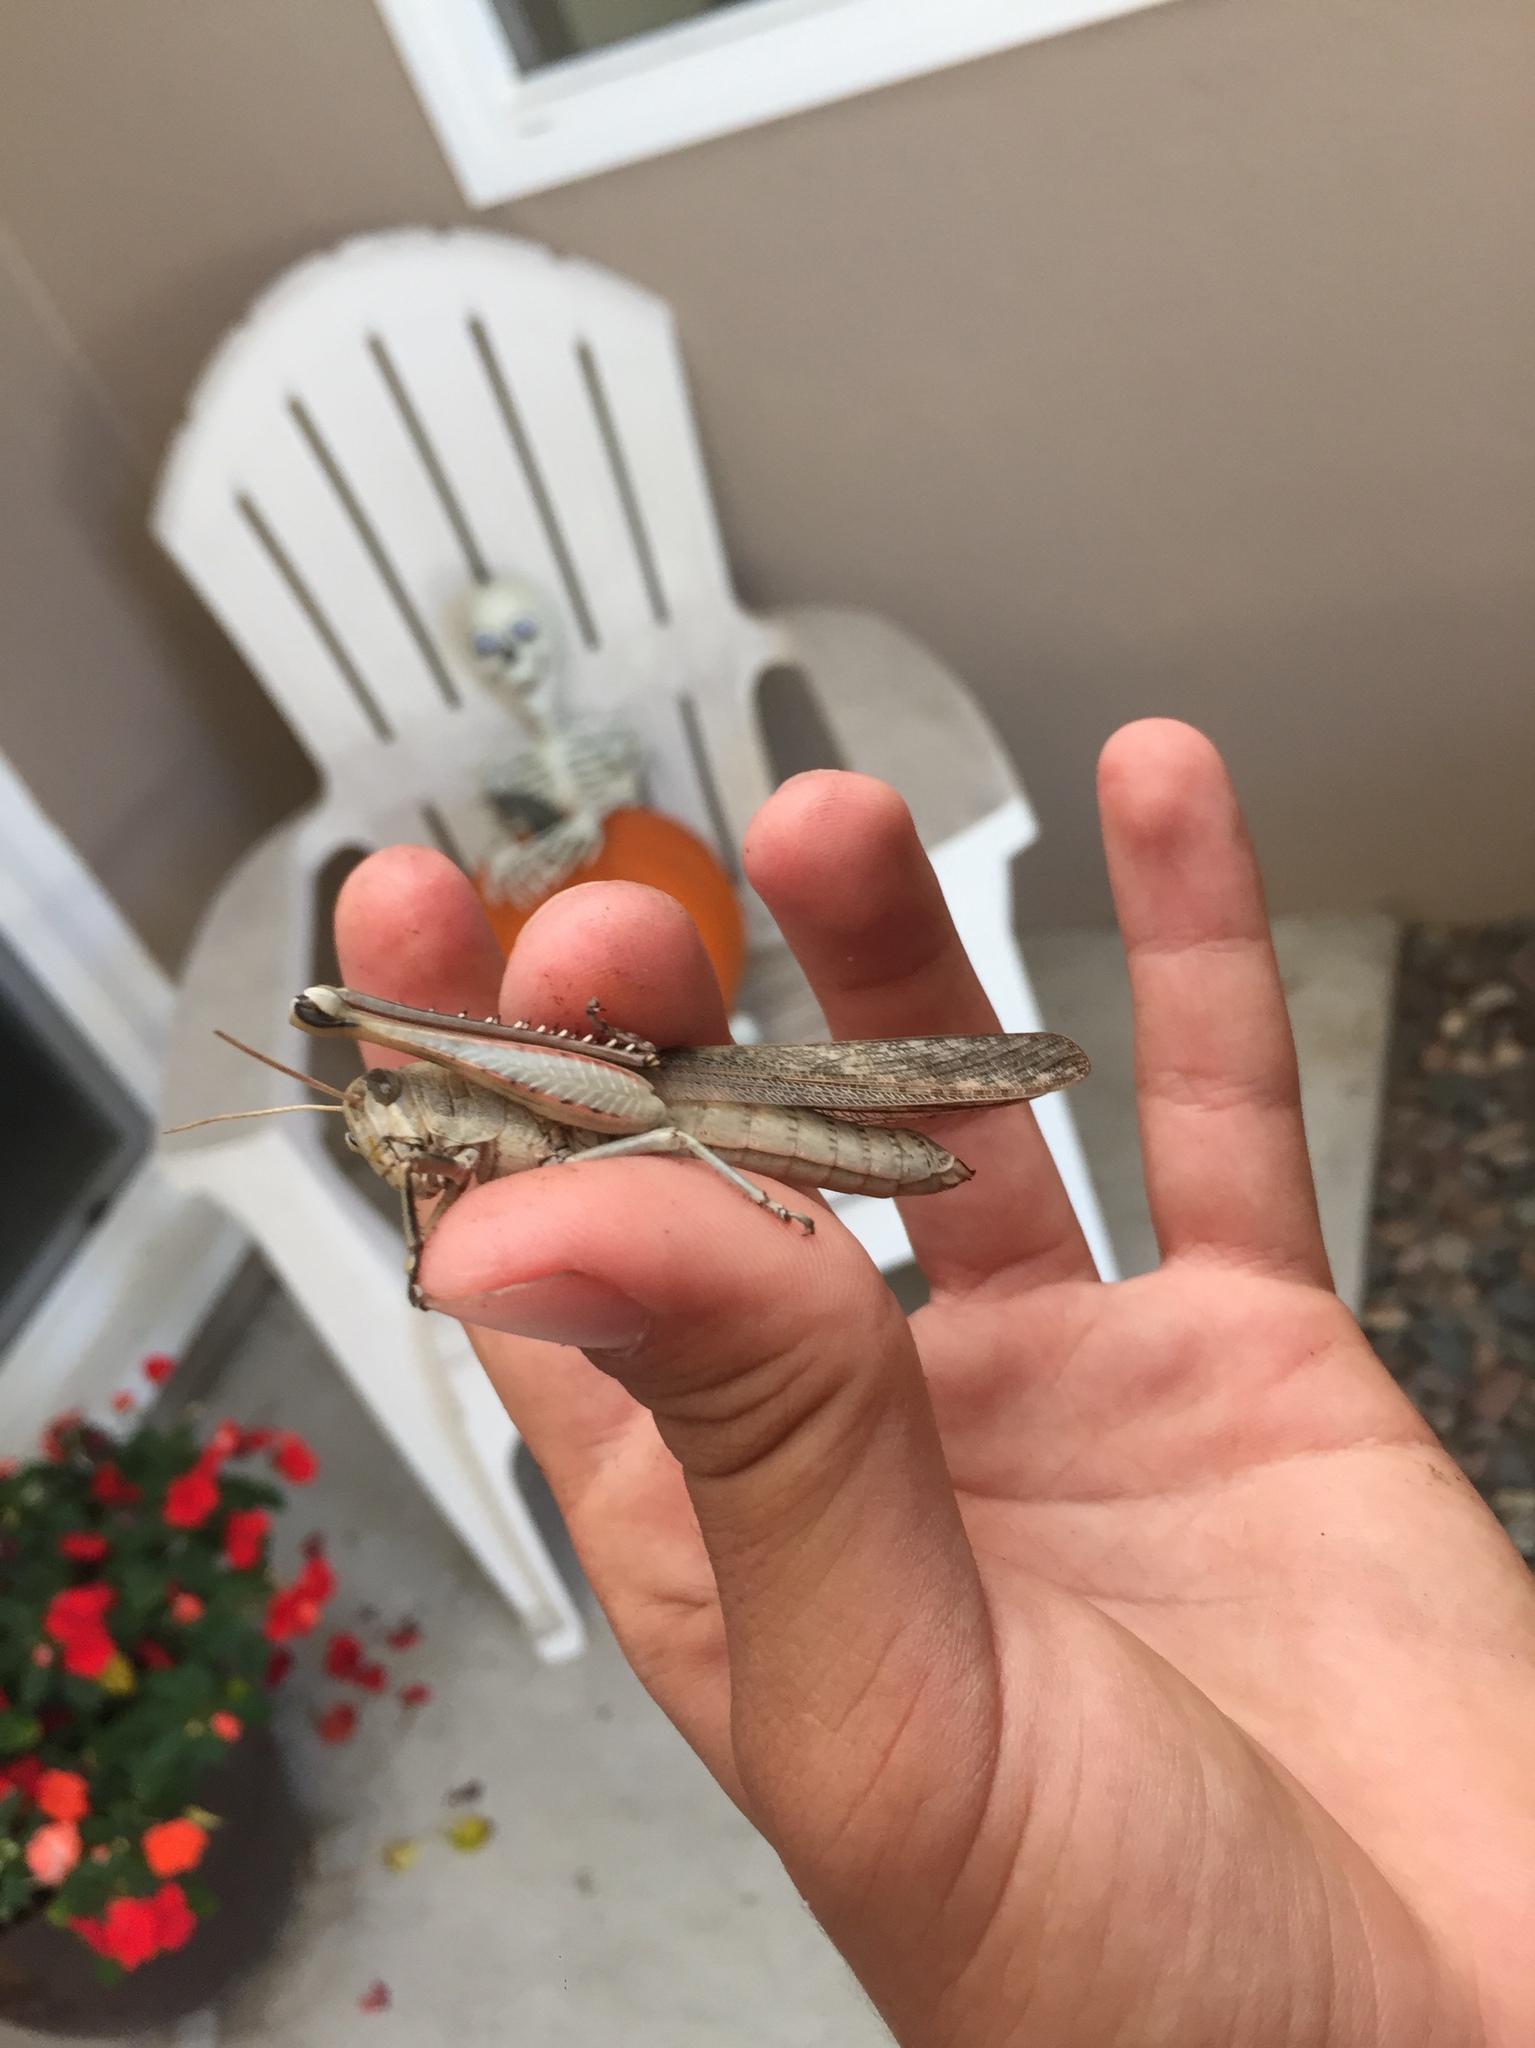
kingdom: Animalia
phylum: Arthropoda
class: Insecta
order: Orthoptera
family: Acrididae
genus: Schistocerca
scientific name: Schistocerca nitens
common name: Vagrant grasshopper
